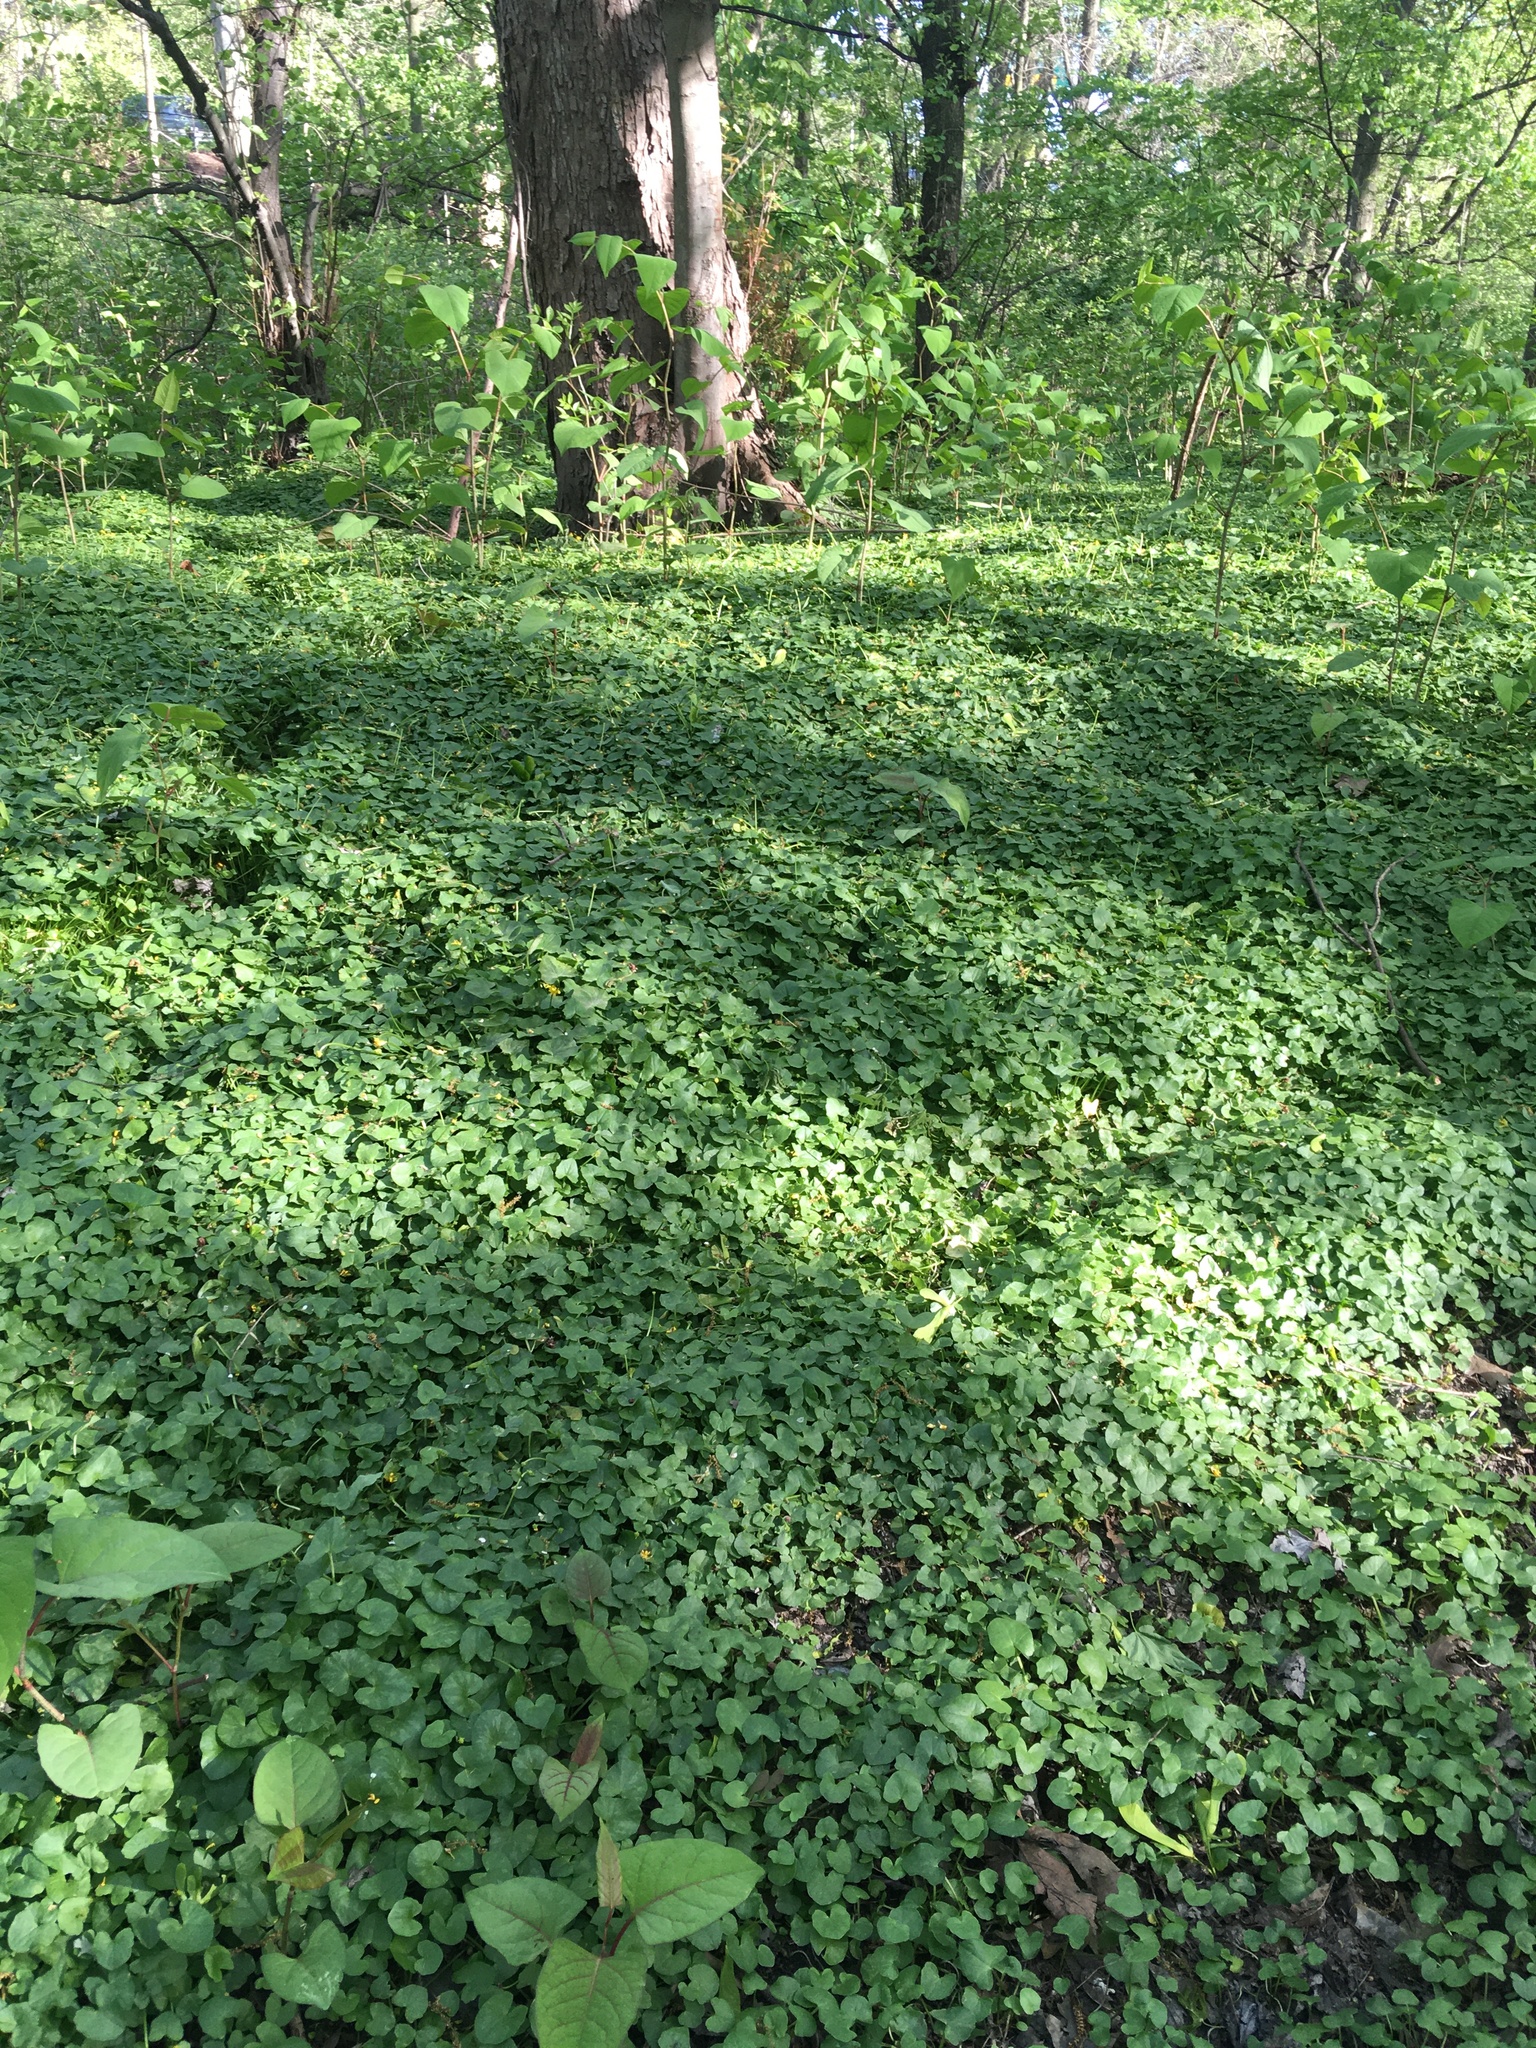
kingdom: Plantae
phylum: Tracheophyta
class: Magnoliopsida
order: Ranunculales
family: Ranunculaceae
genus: Ficaria
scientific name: Ficaria verna
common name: Lesser celandine
